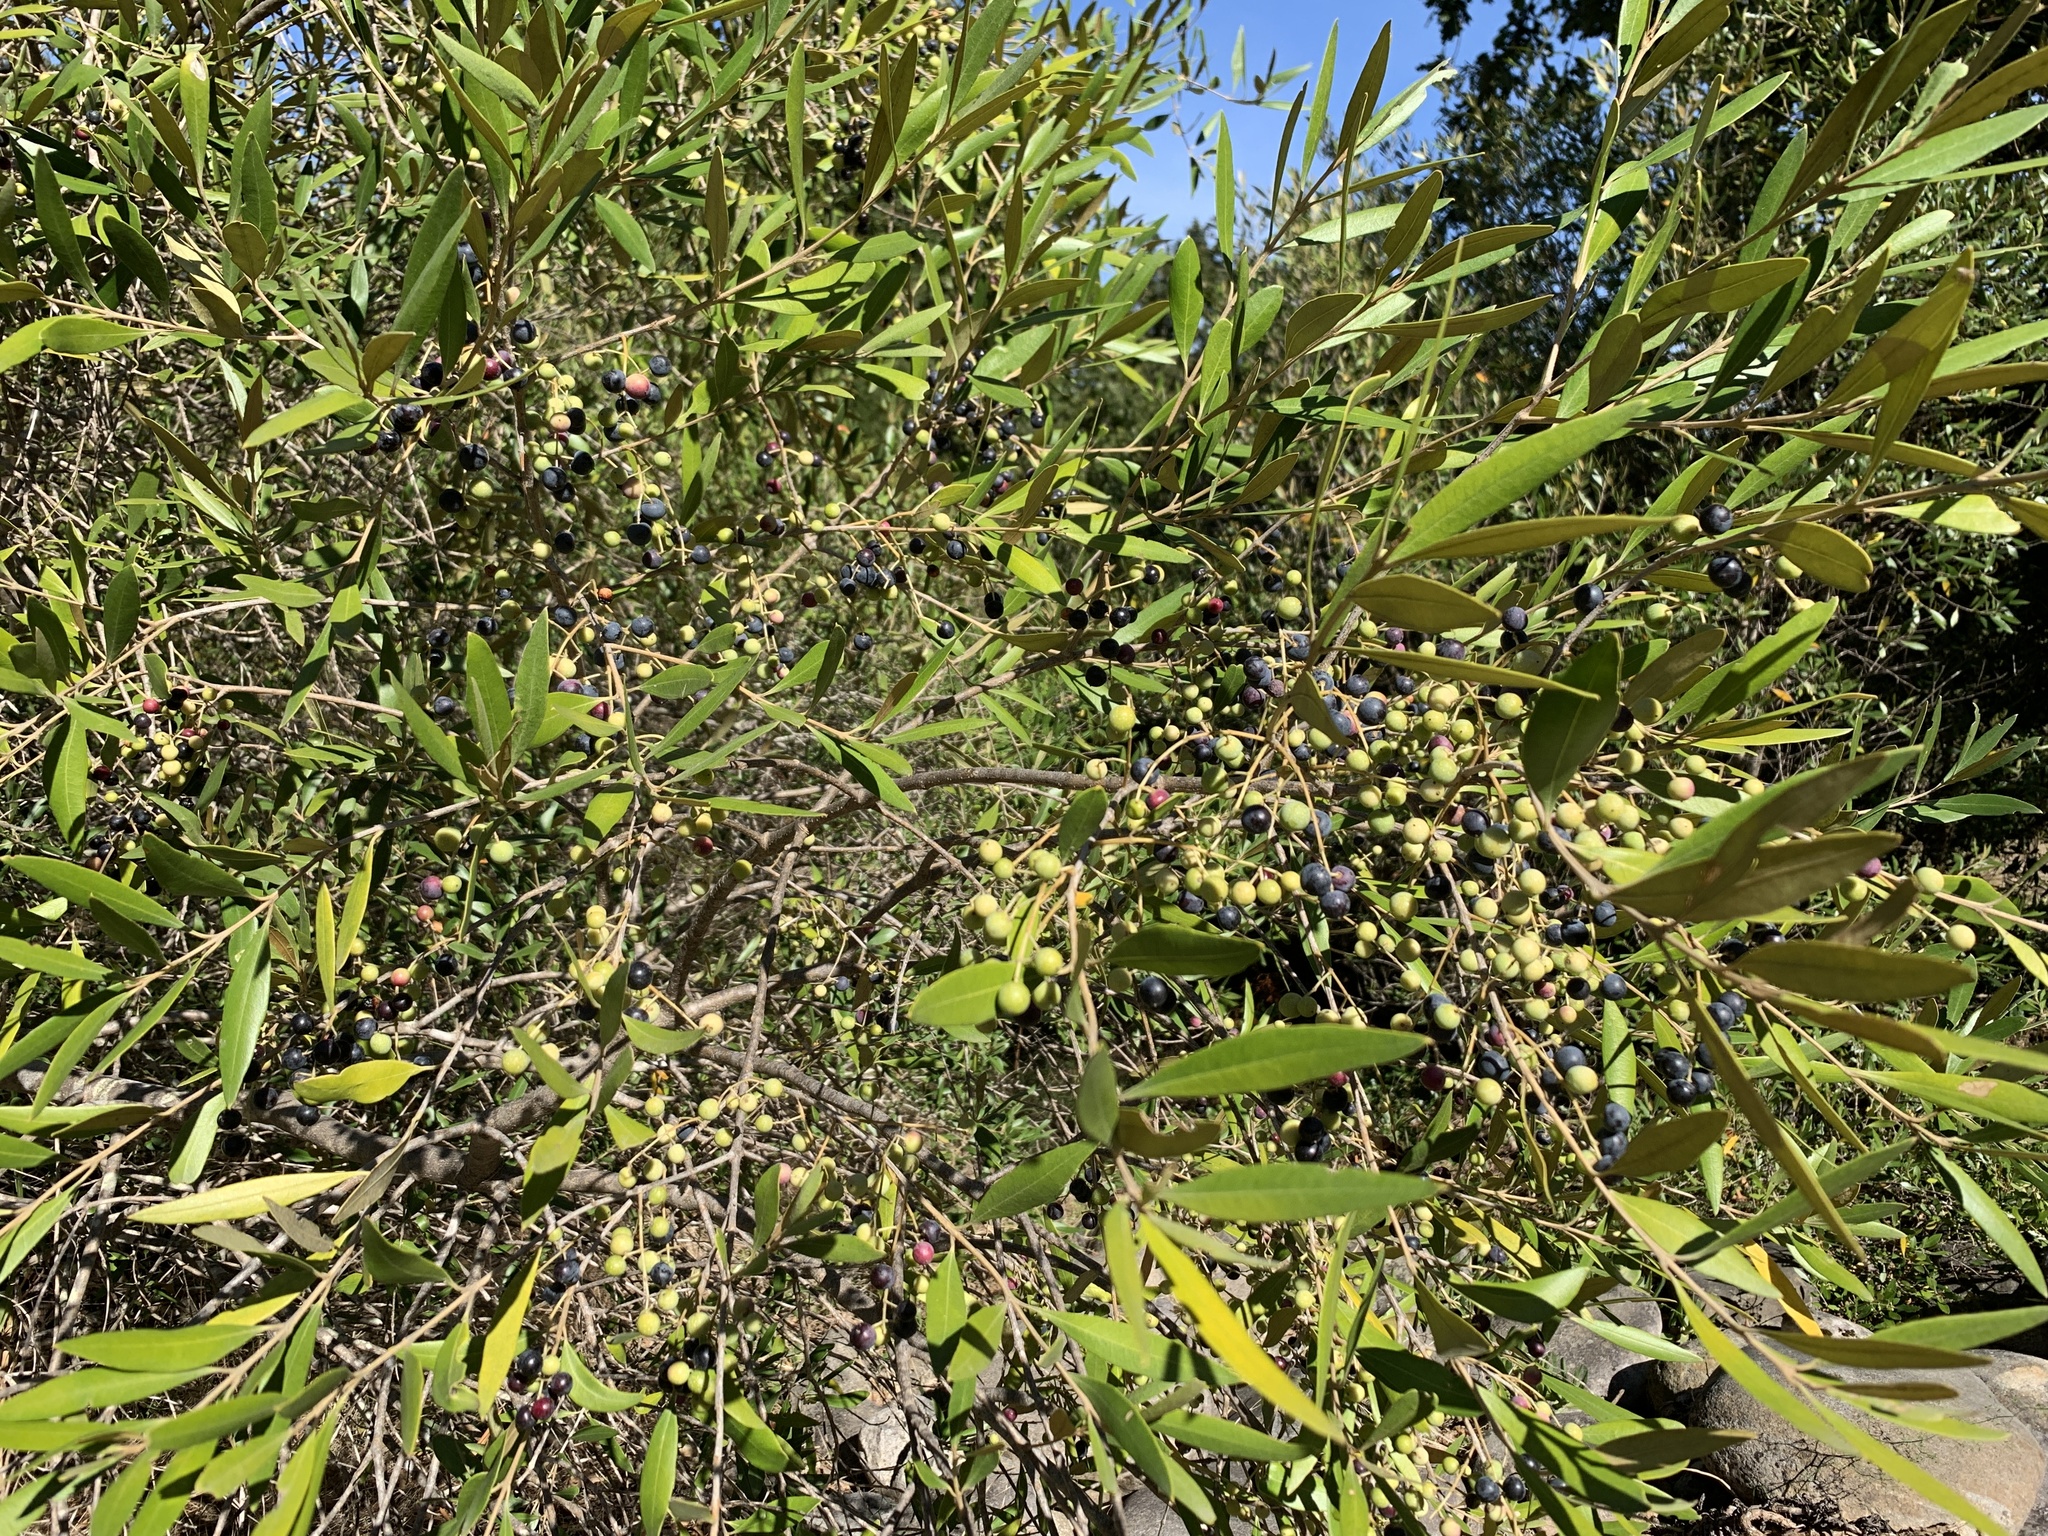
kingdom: Plantae
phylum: Tracheophyta
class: Magnoliopsida
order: Lamiales
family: Oleaceae
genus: Olea
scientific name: Olea europaea
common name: Olive
